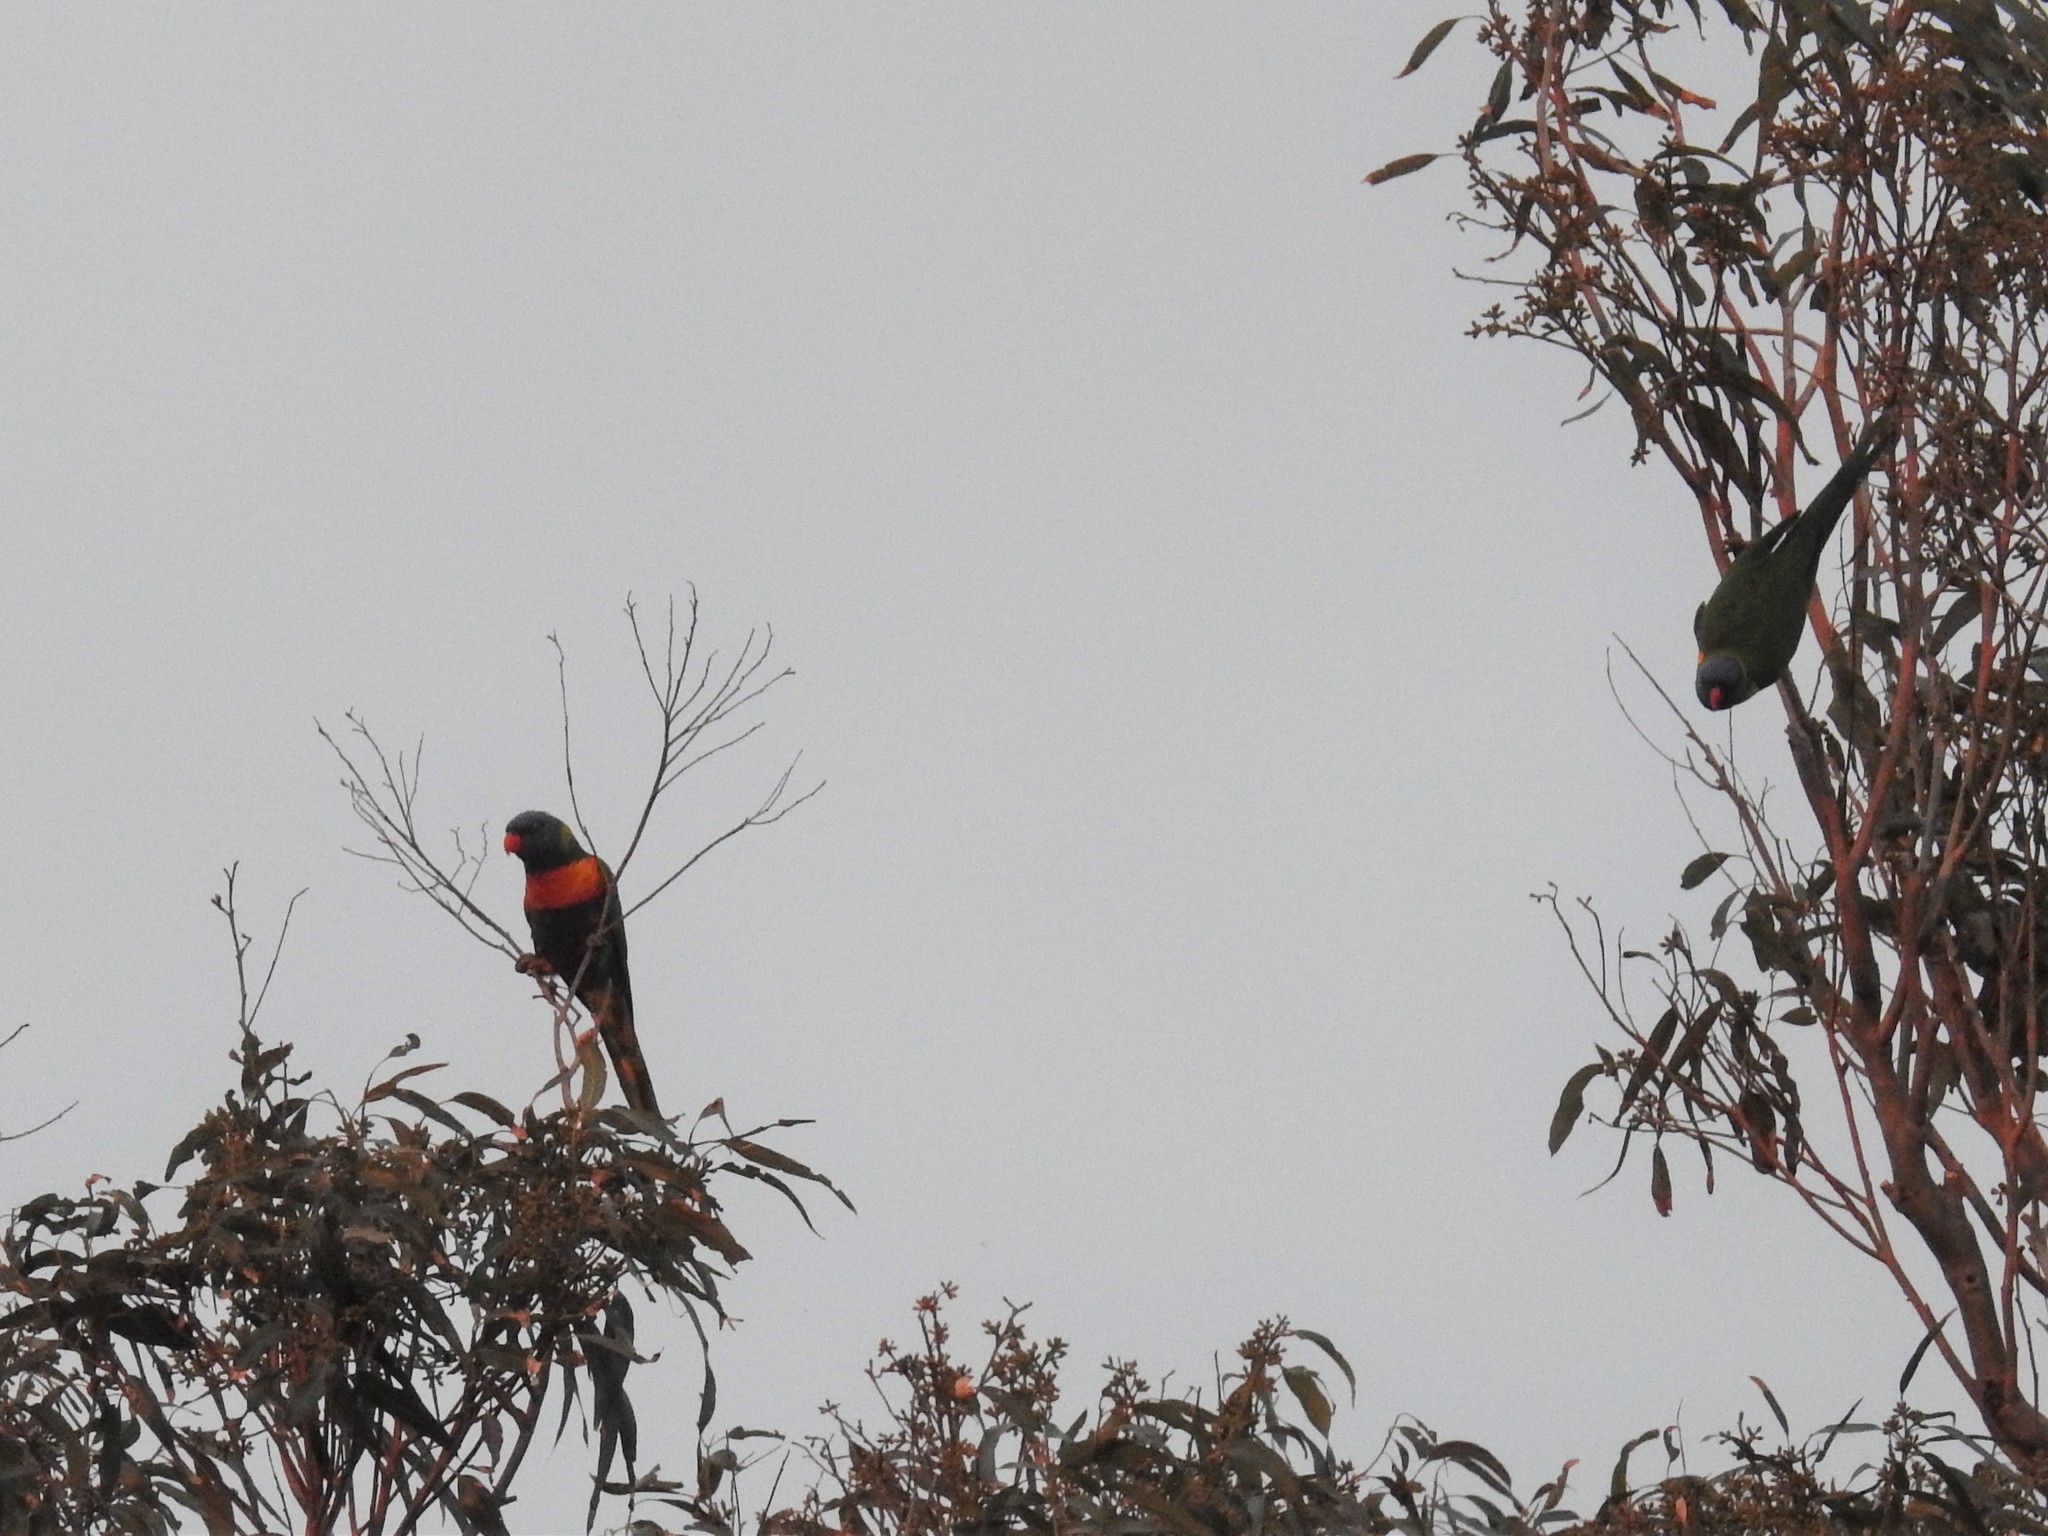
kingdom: Animalia
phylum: Chordata
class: Aves
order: Psittaciformes
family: Psittacidae
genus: Trichoglossus
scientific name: Trichoglossus haematodus
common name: Coconut lorikeet
